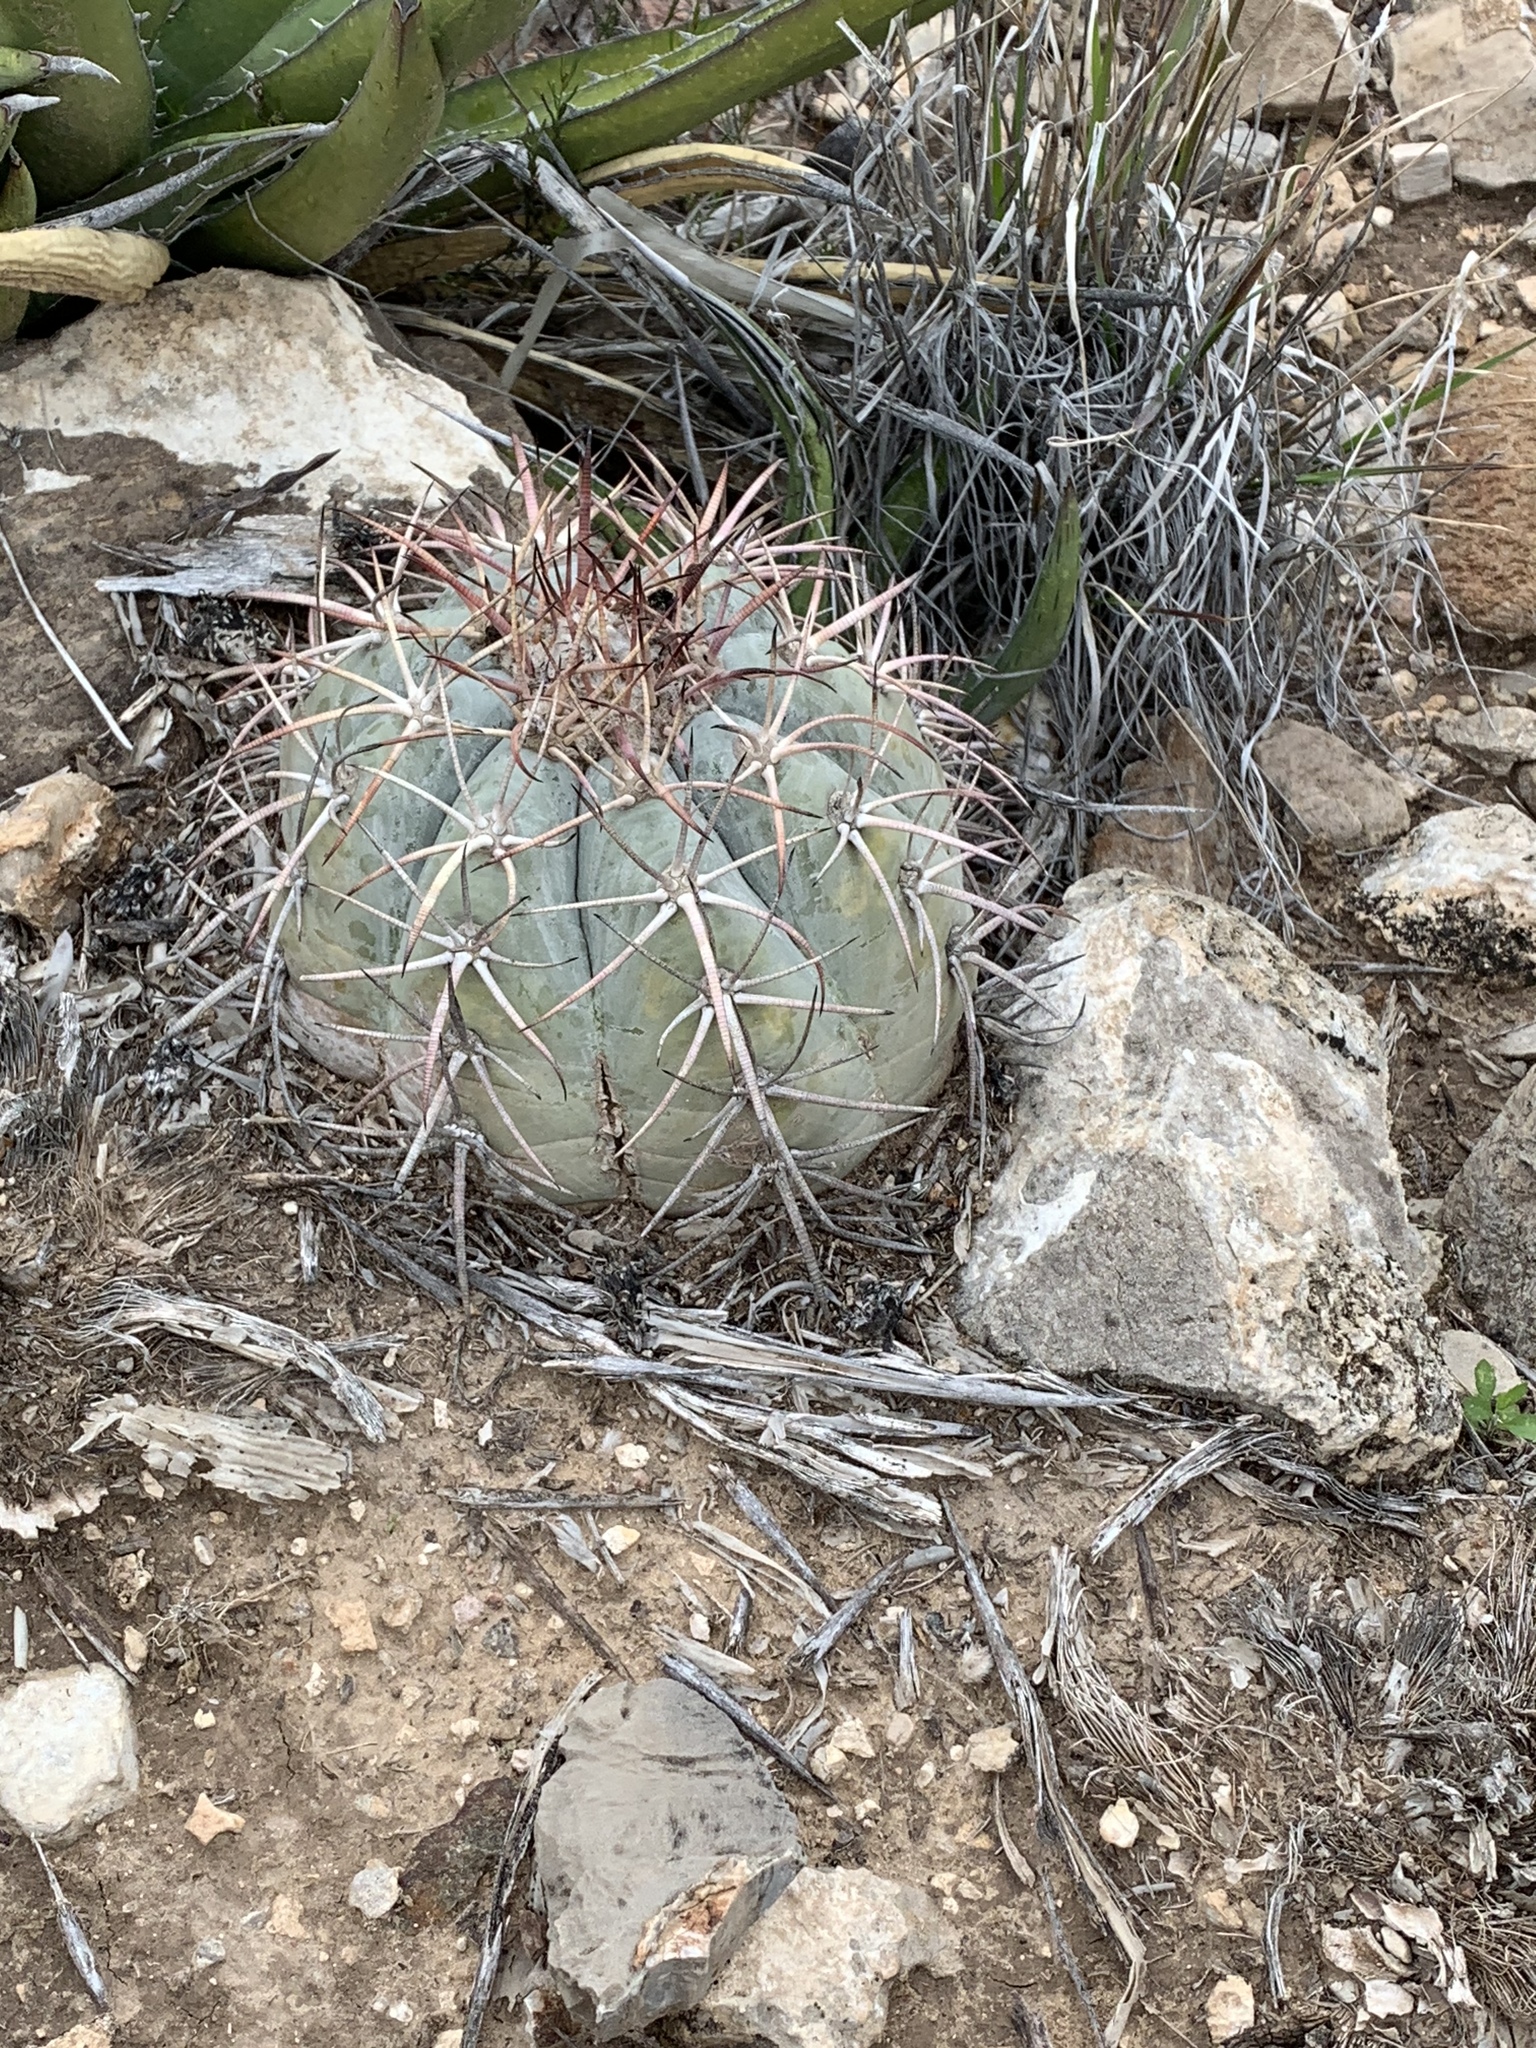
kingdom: Plantae
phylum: Tracheophyta
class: Magnoliopsida
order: Caryophyllales
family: Cactaceae
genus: Echinocactus
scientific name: Echinocactus horizonthalonius
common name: Devilshead
